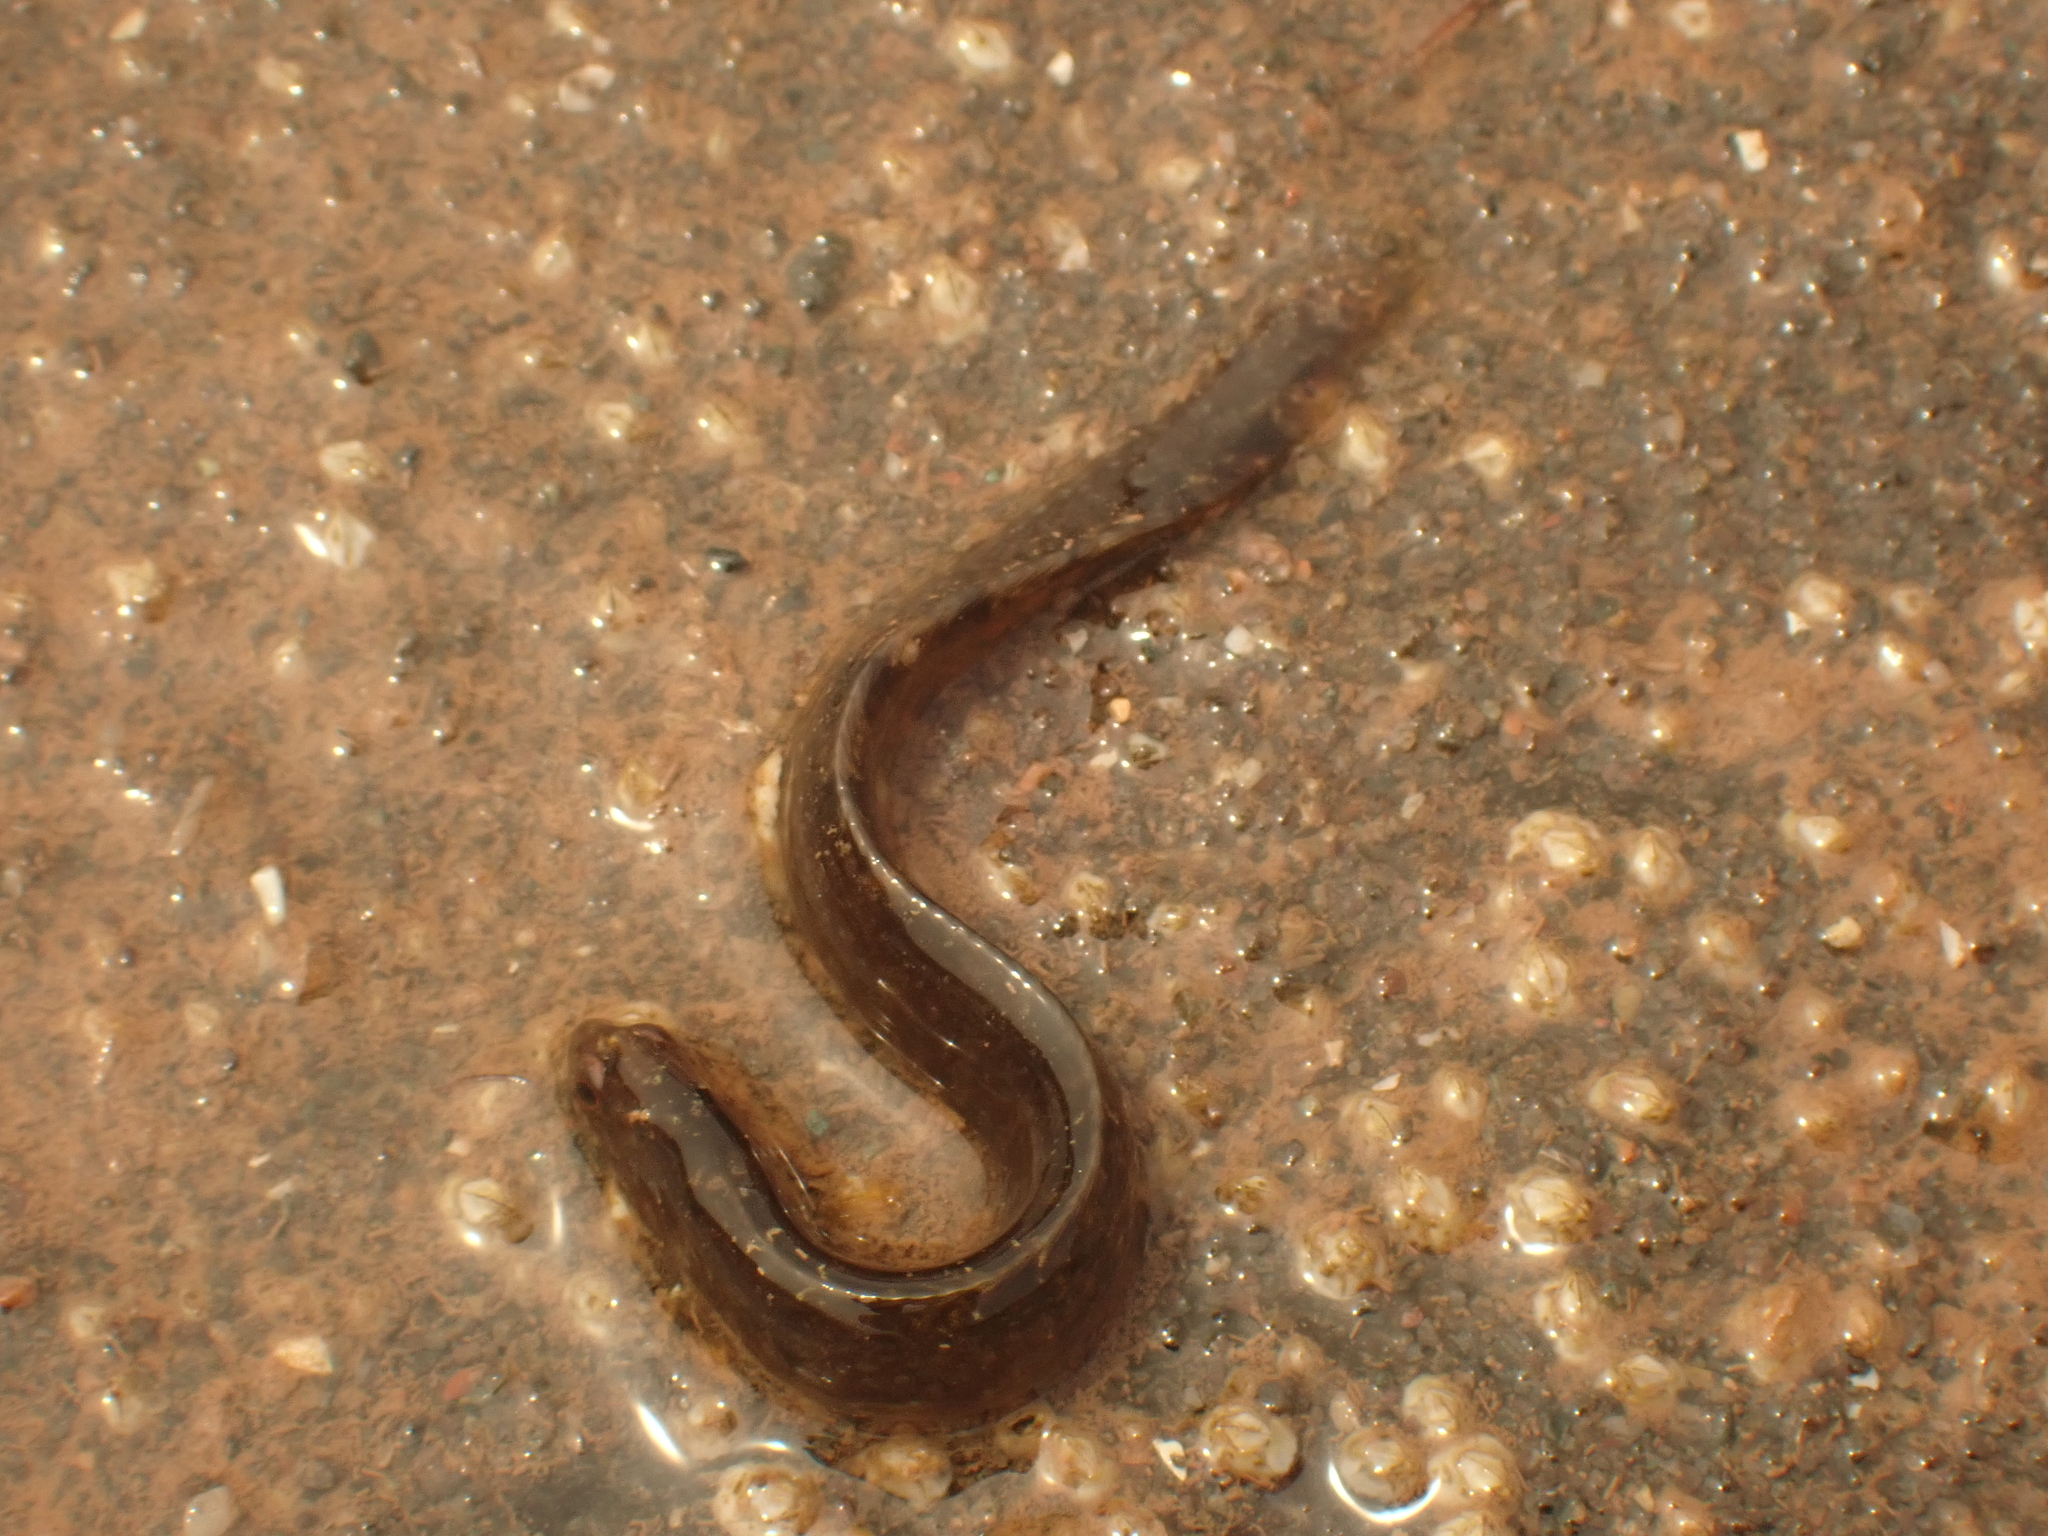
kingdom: Animalia
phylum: Chordata
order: Perciformes
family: Pholidae
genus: Pholis
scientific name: Pholis gunnellus
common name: Butterfish
